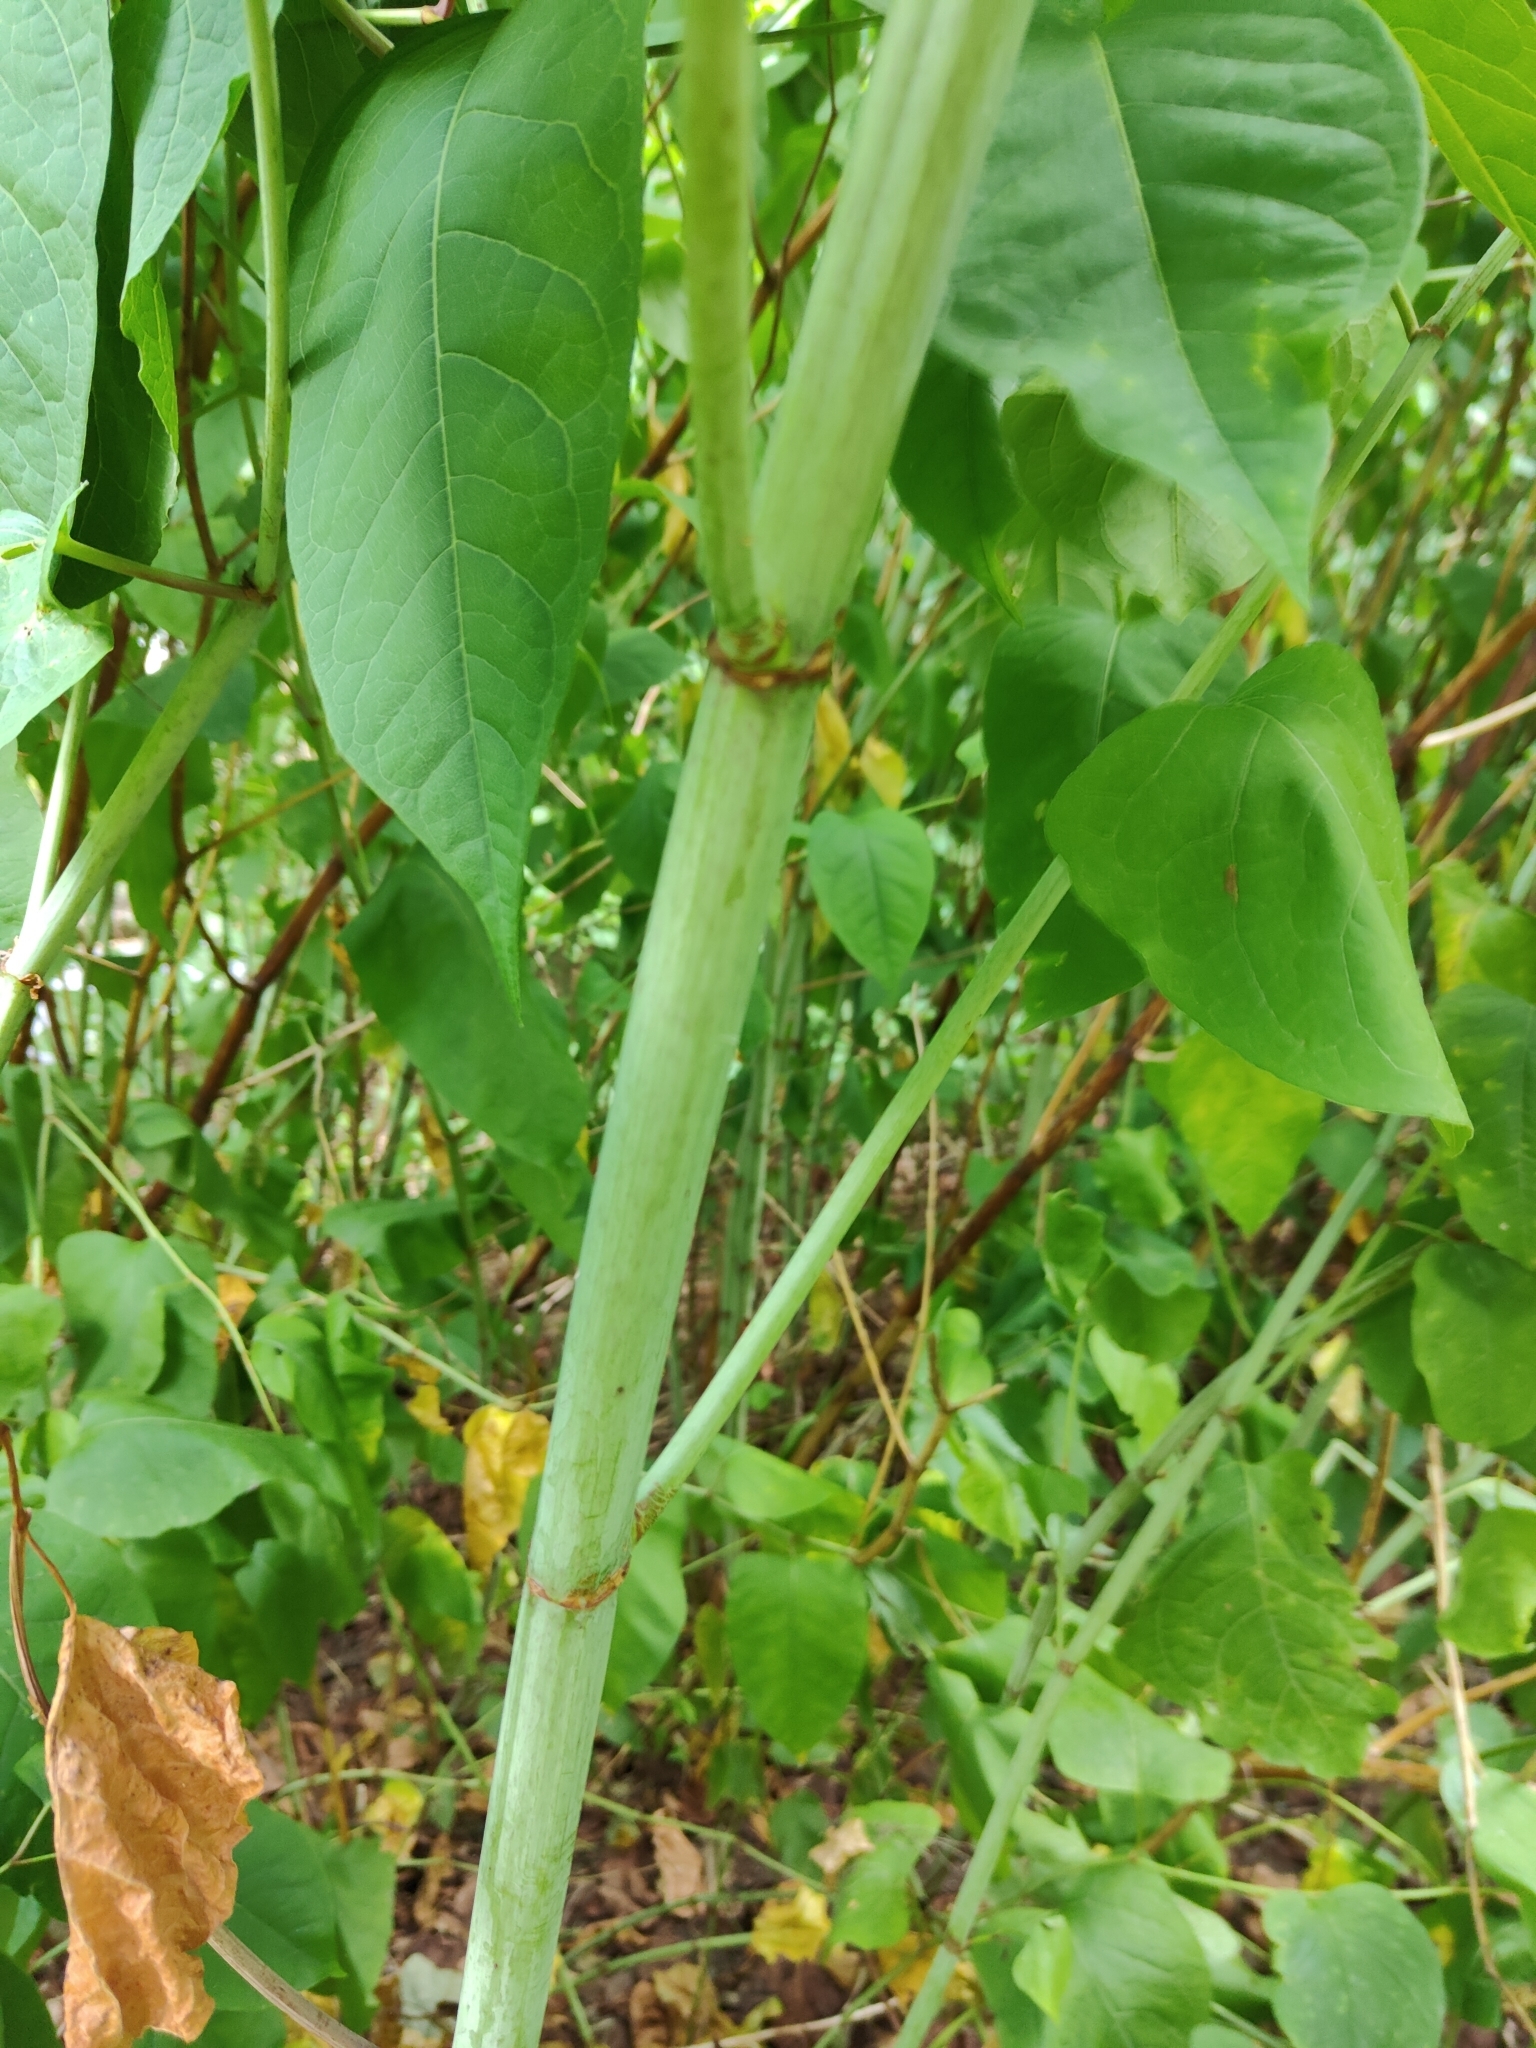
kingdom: Plantae
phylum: Tracheophyta
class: Magnoliopsida
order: Caryophyllales
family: Polygonaceae
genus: Reynoutria
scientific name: Reynoutria bohemica
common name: Bohemian knotweed
